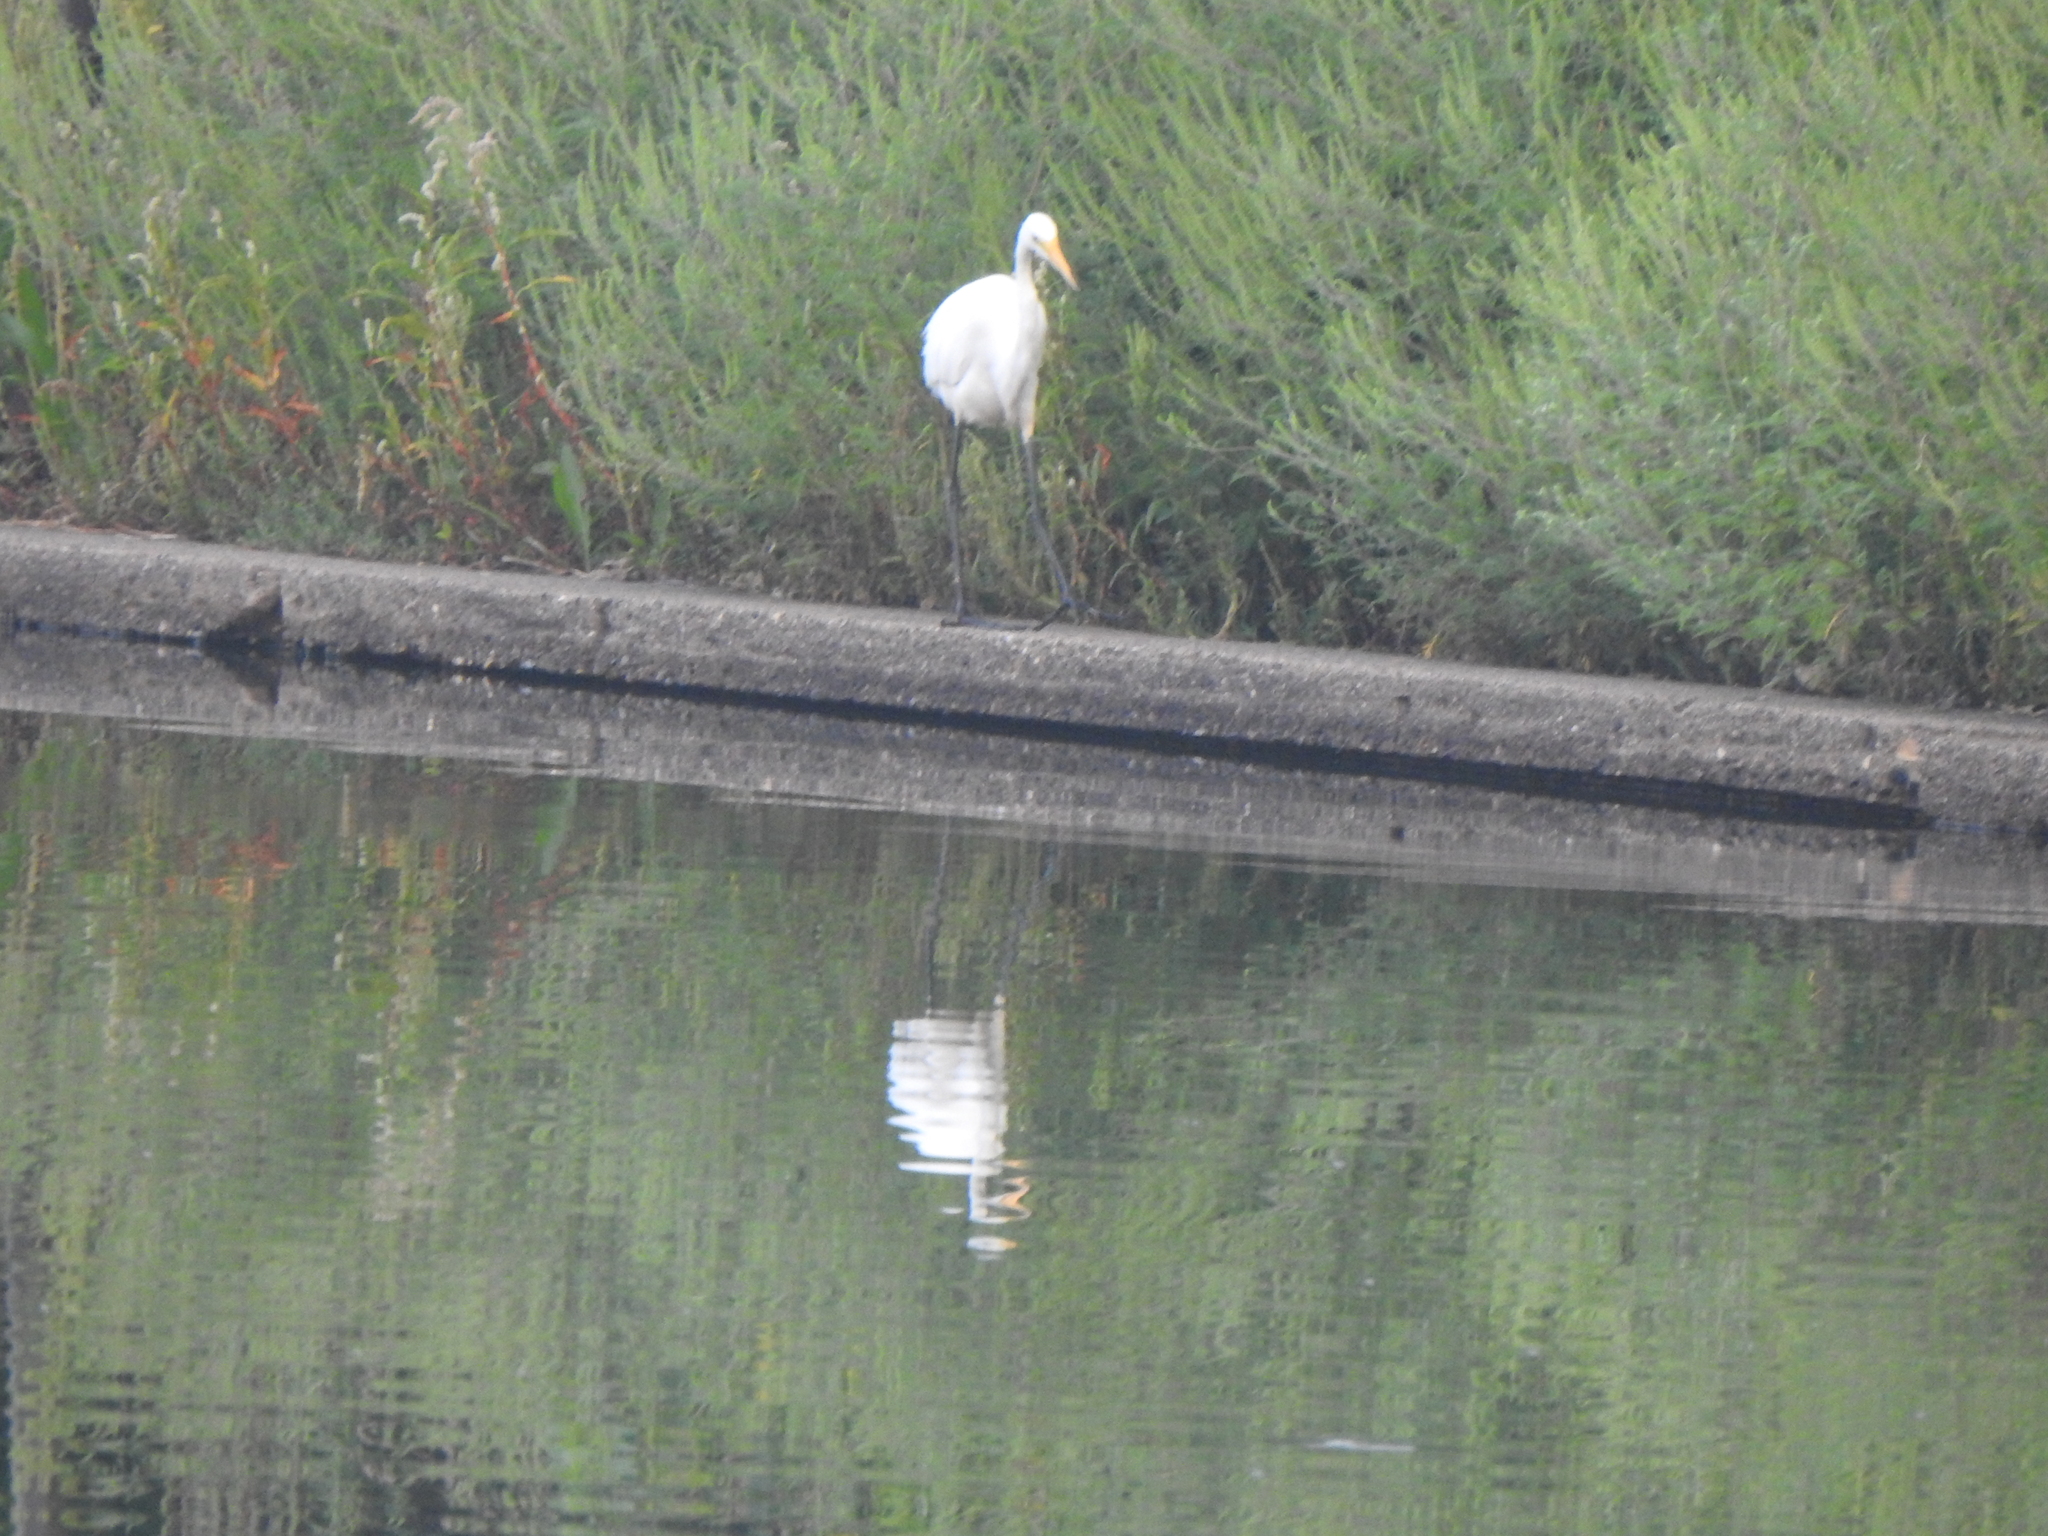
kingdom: Animalia
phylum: Chordata
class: Aves
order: Pelecaniformes
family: Ardeidae
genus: Ardea
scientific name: Ardea alba
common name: Great egret
